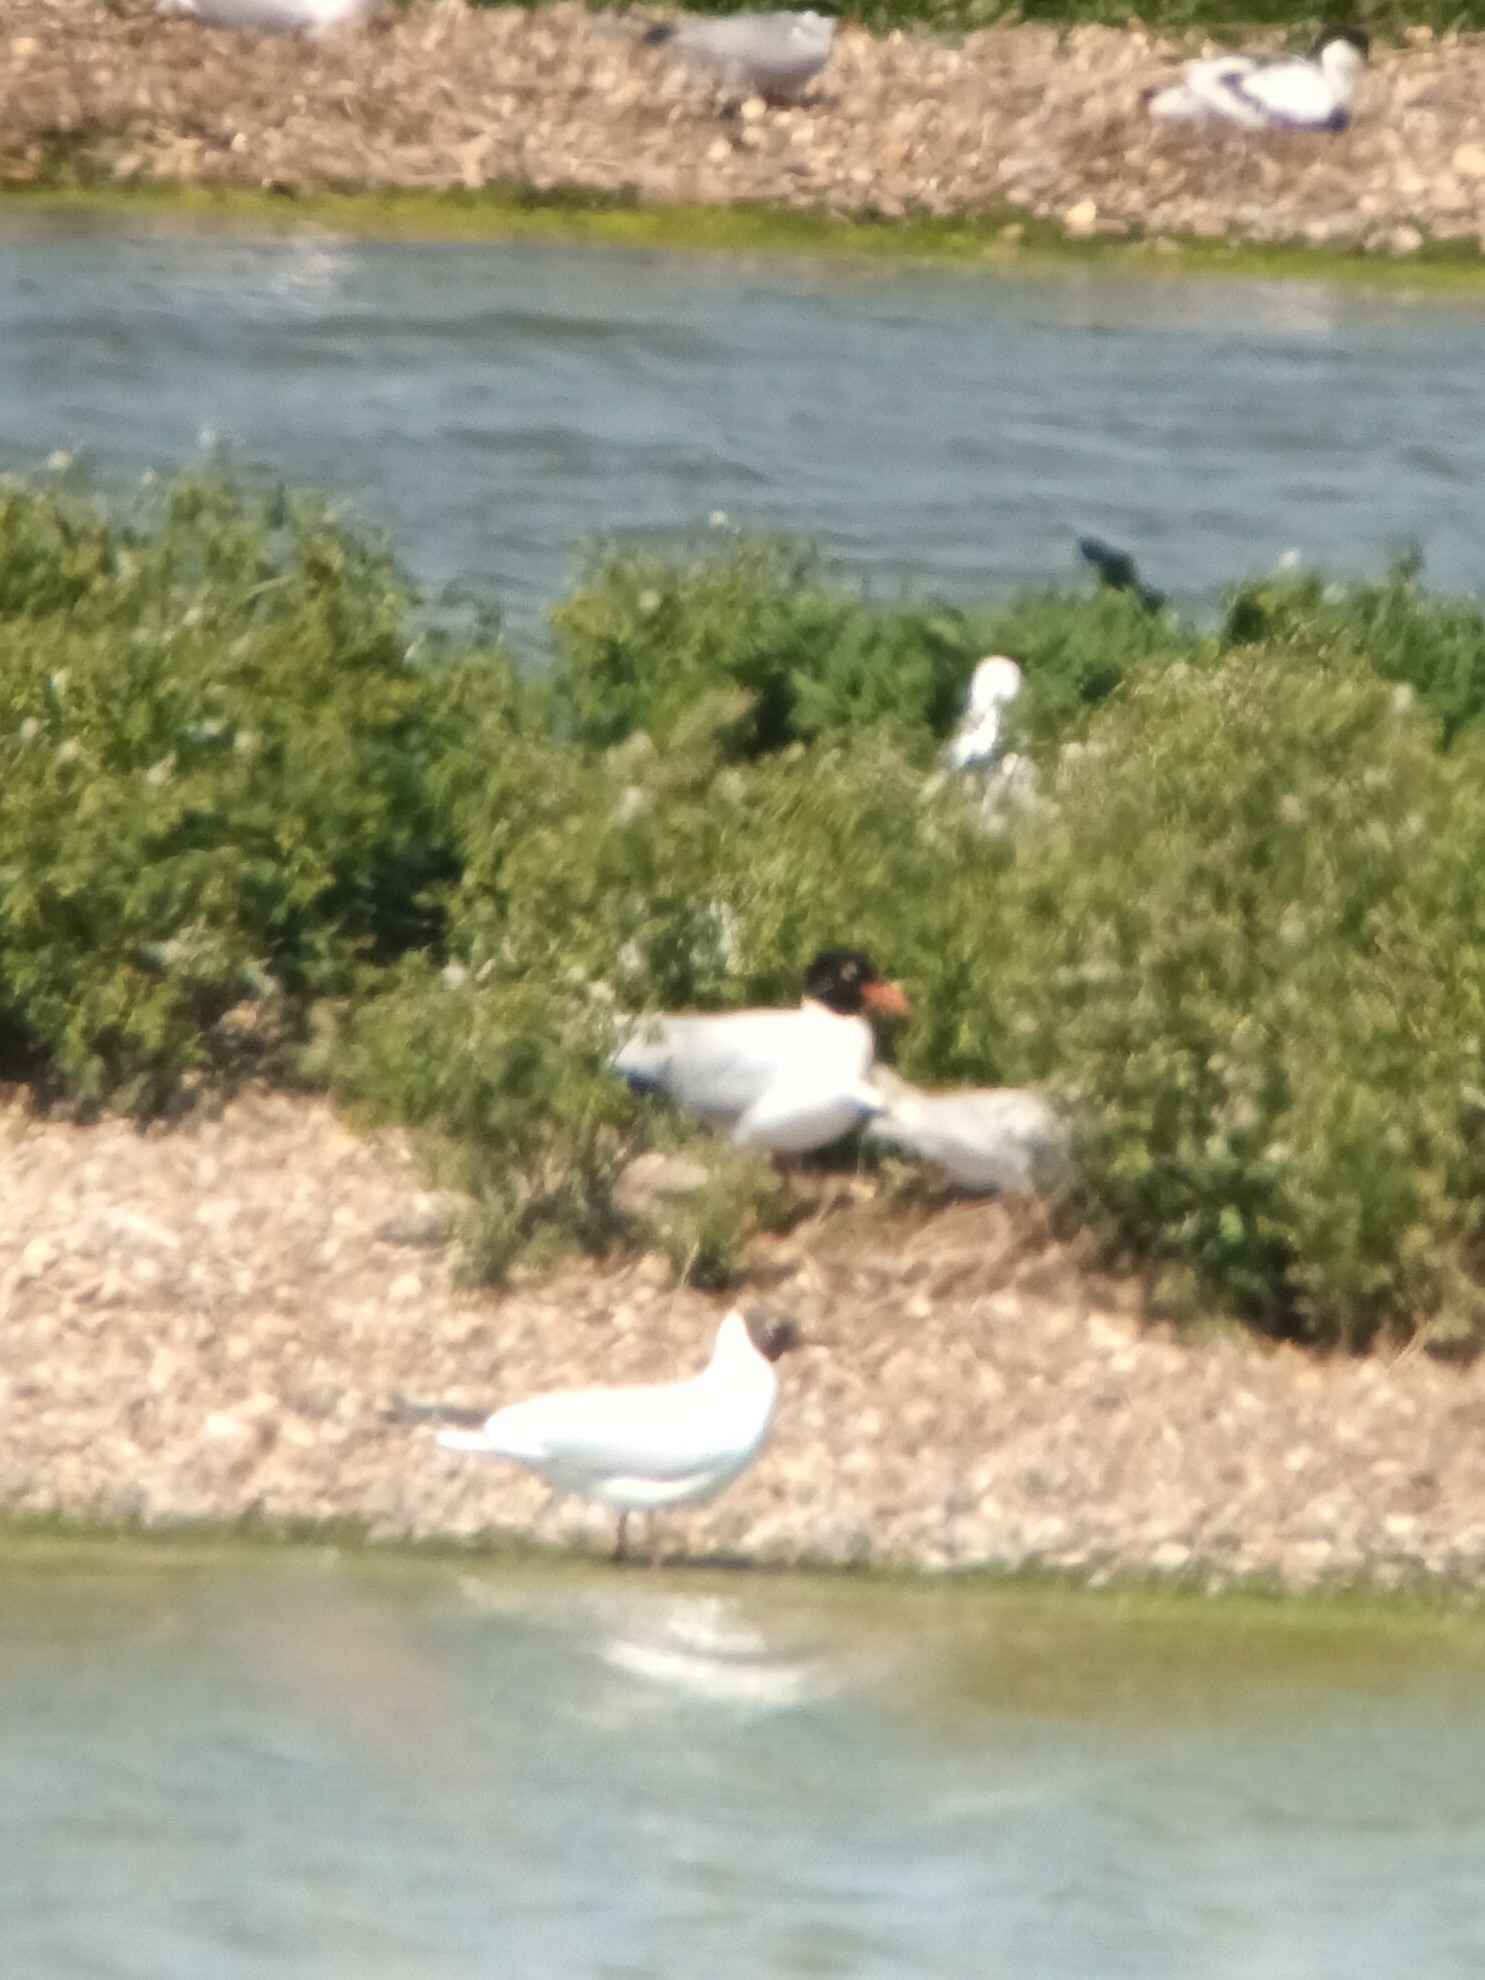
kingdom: Animalia
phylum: Chordata
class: Aves
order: Charadriiformes
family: Laridae
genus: Ichthyaetus
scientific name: Ichthyaetus melanocephalus
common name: Mediterranean gull
